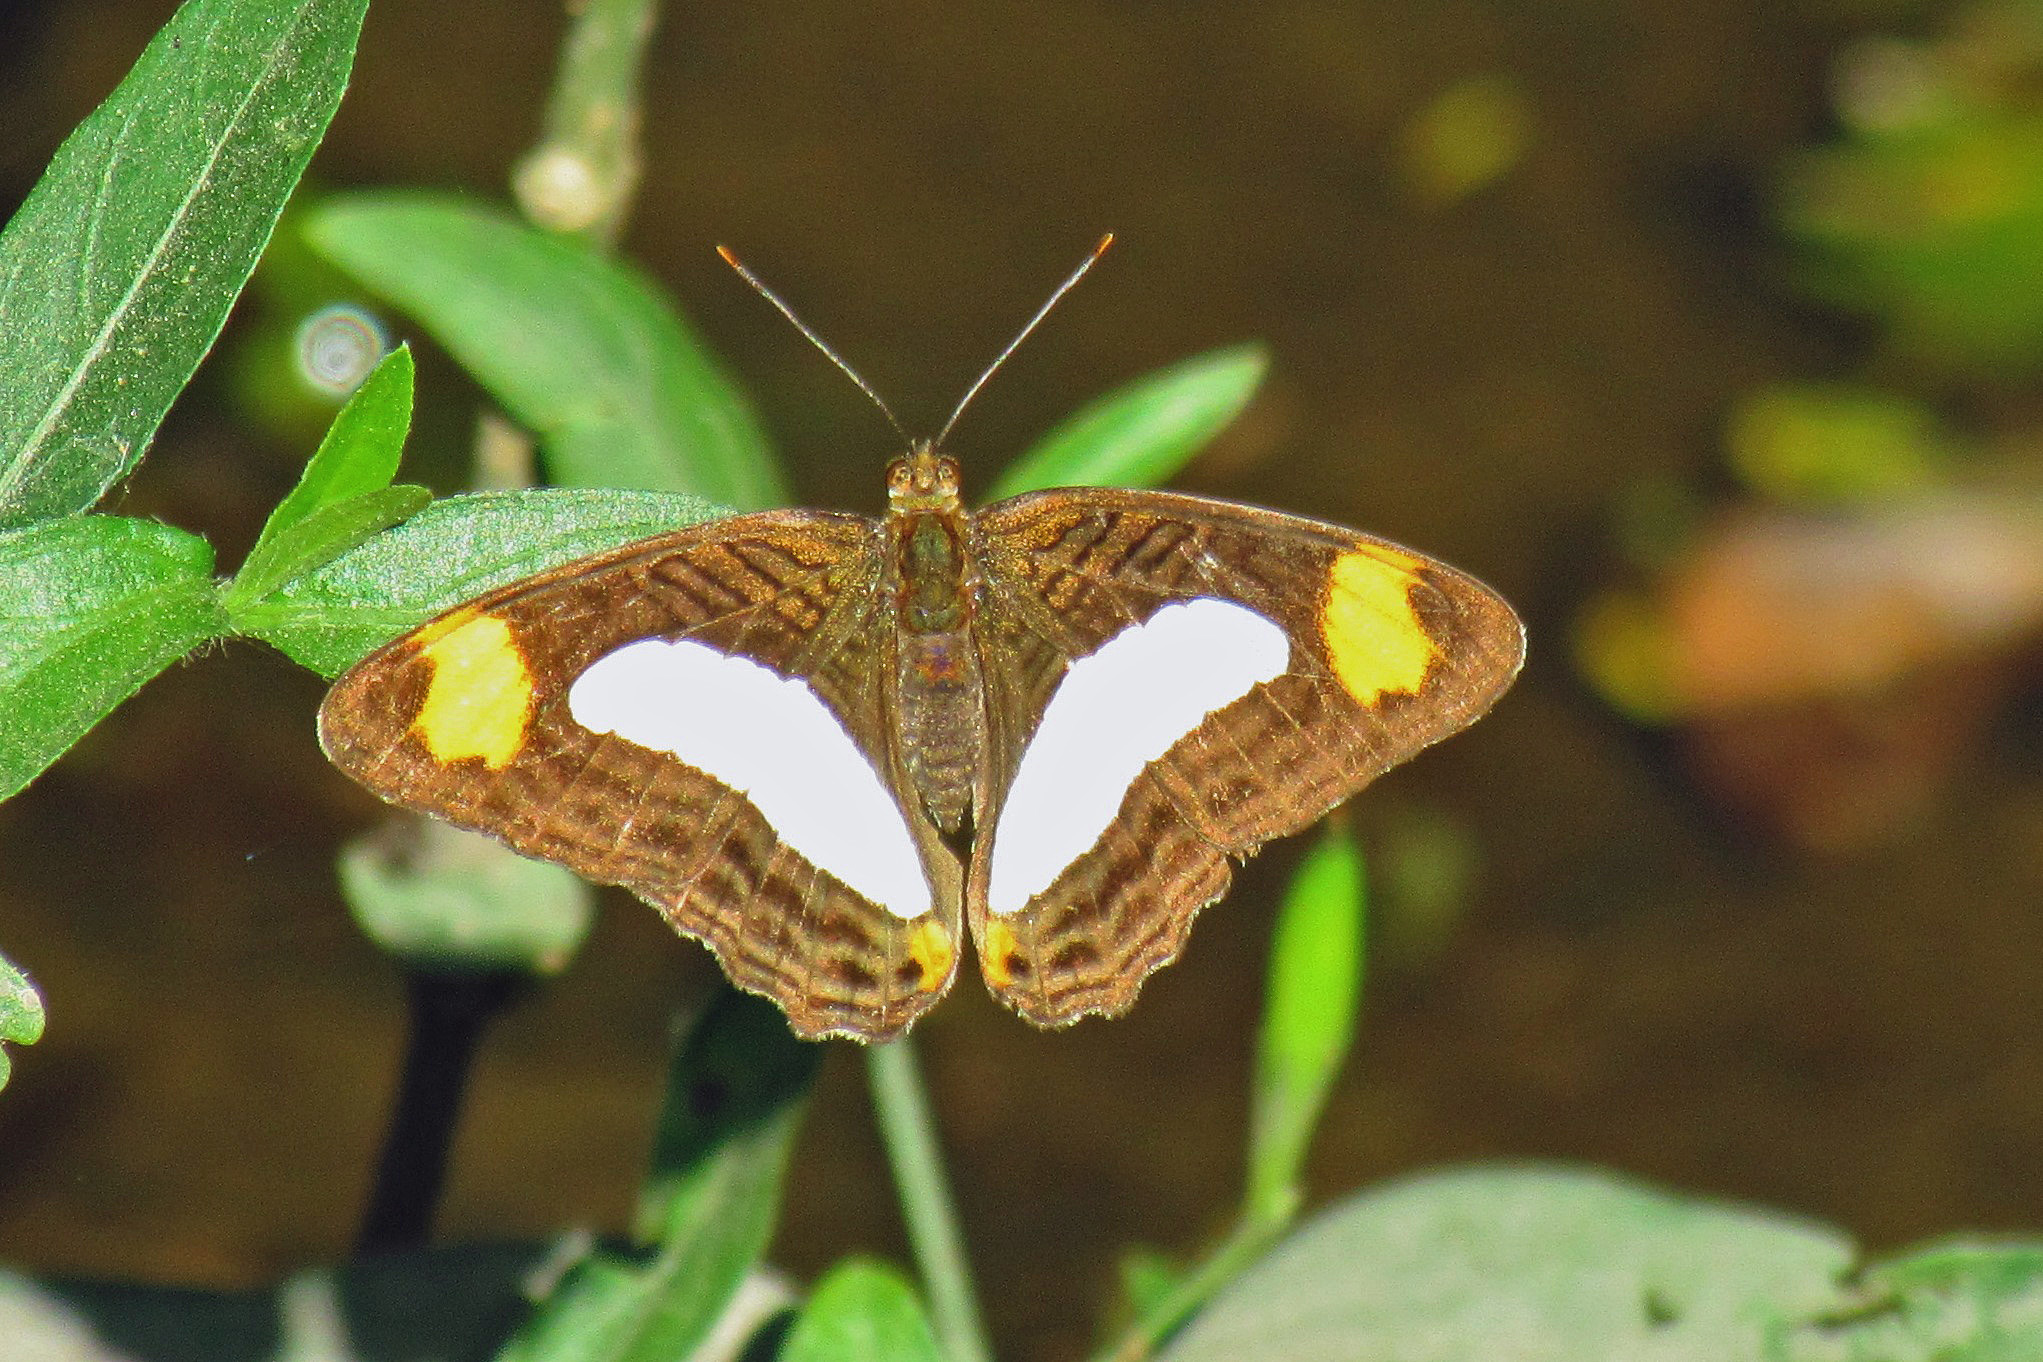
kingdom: Animalia
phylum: Arthropoda
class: Insecta
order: Lepidoptera
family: Nymphalidae
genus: Limenitis
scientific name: Limenitis iphiclus
